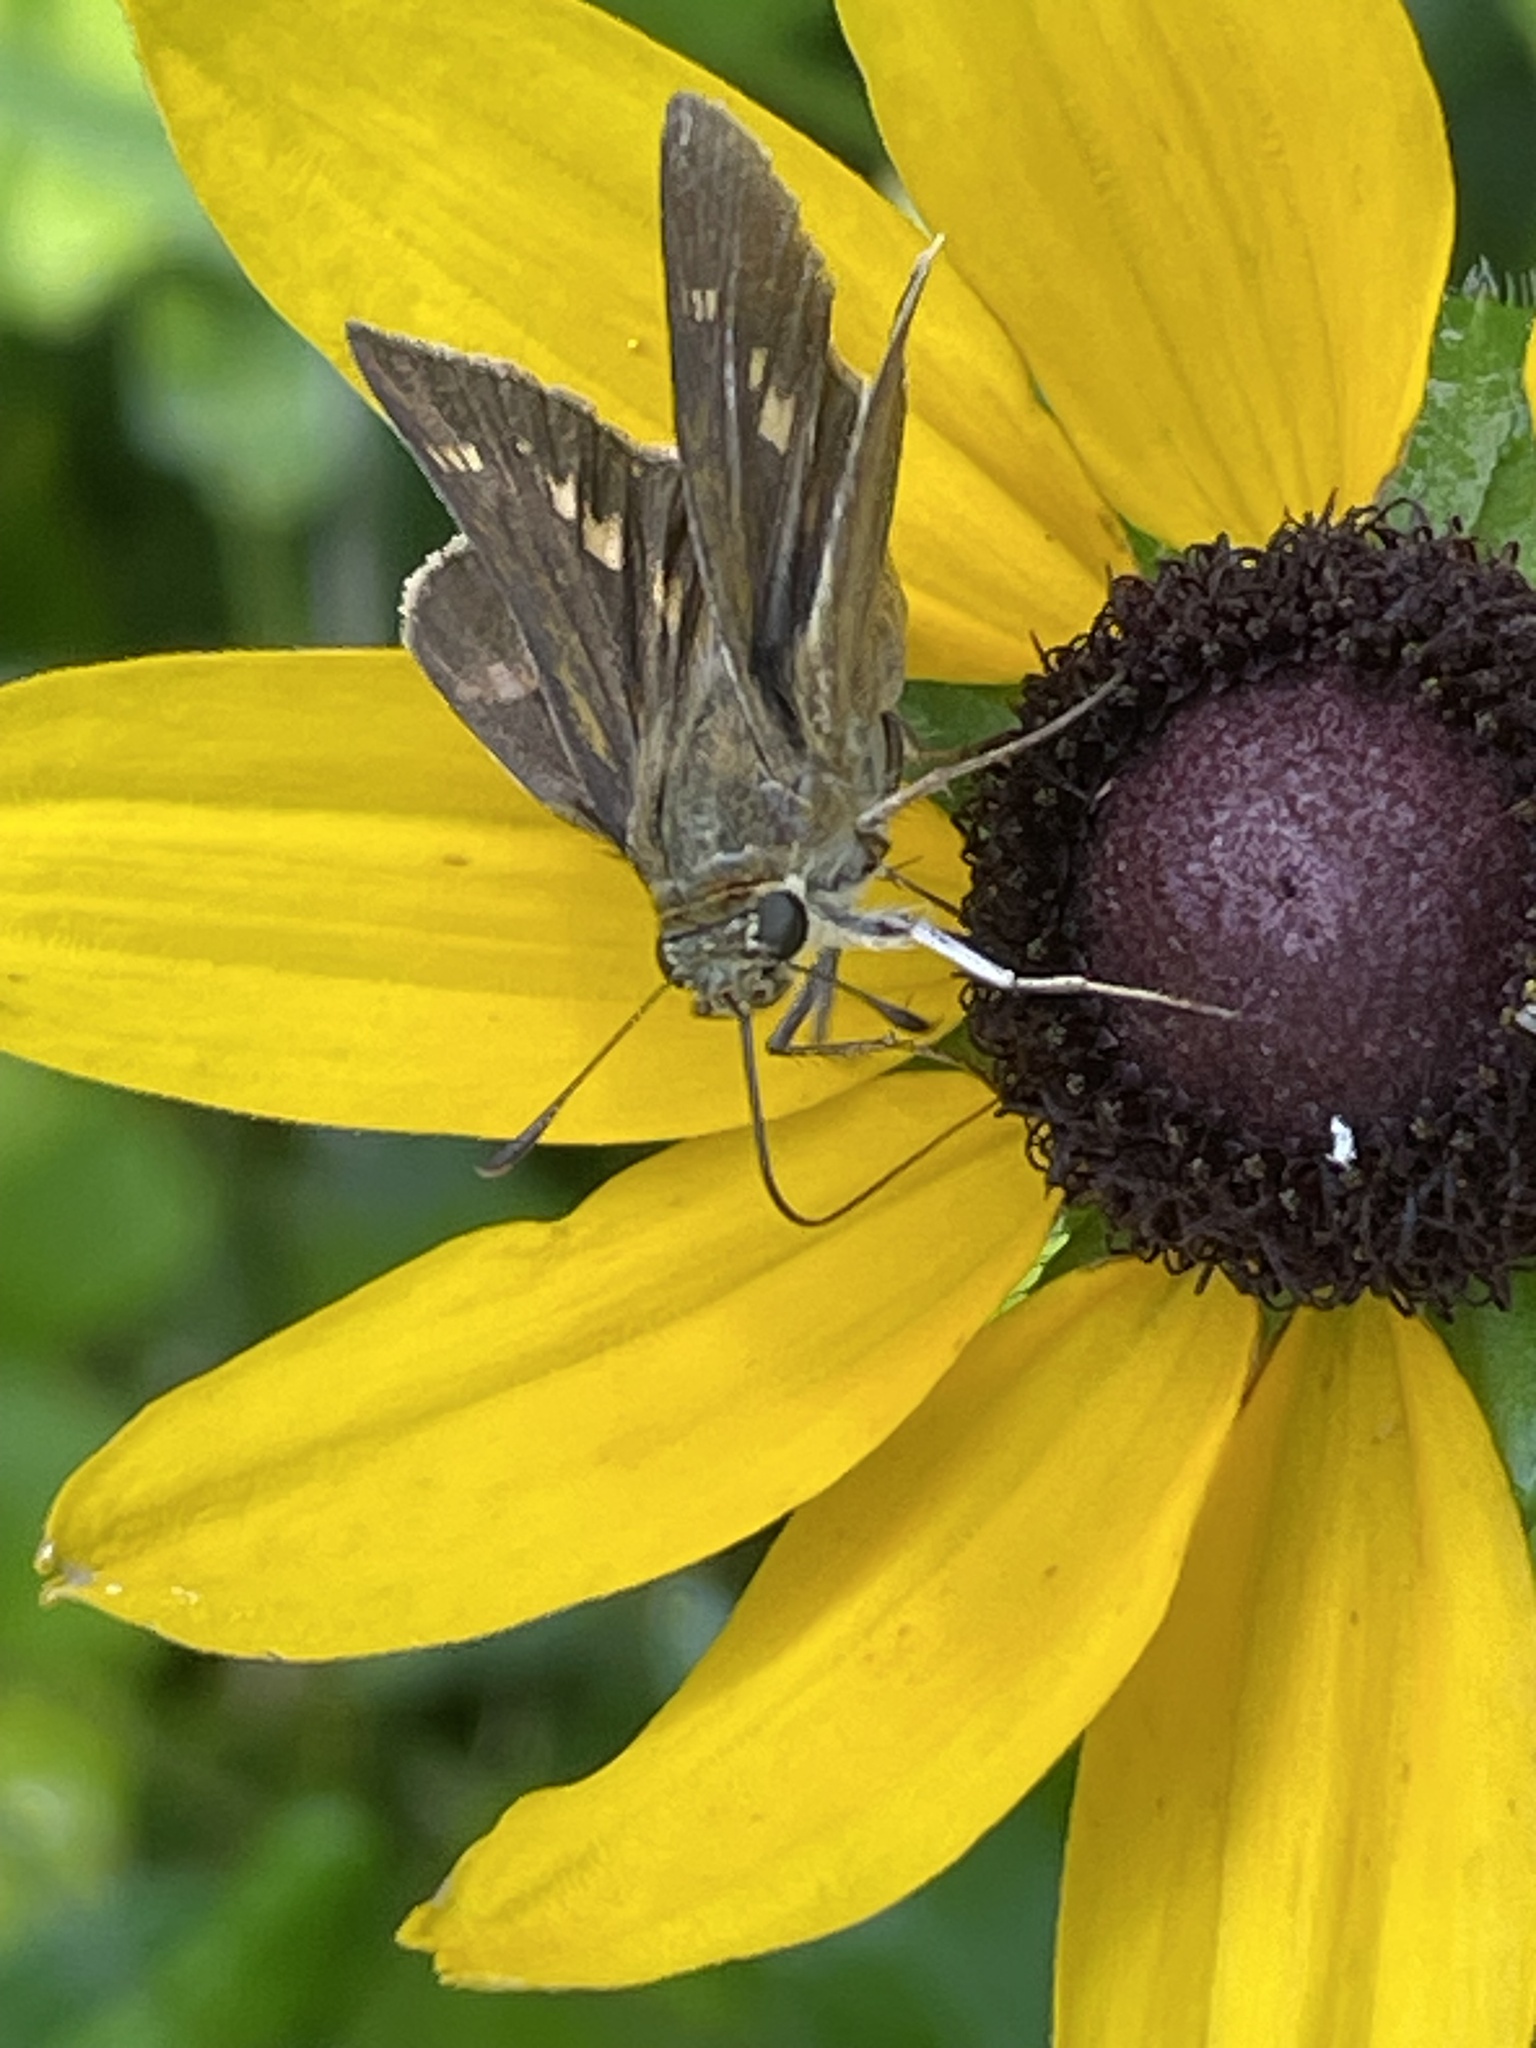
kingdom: Animalia
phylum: Arthropoda
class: Insecta
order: Lepidoptera
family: Hesperiidae
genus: Vernia
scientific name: Vernia verna
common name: Little glassywing
